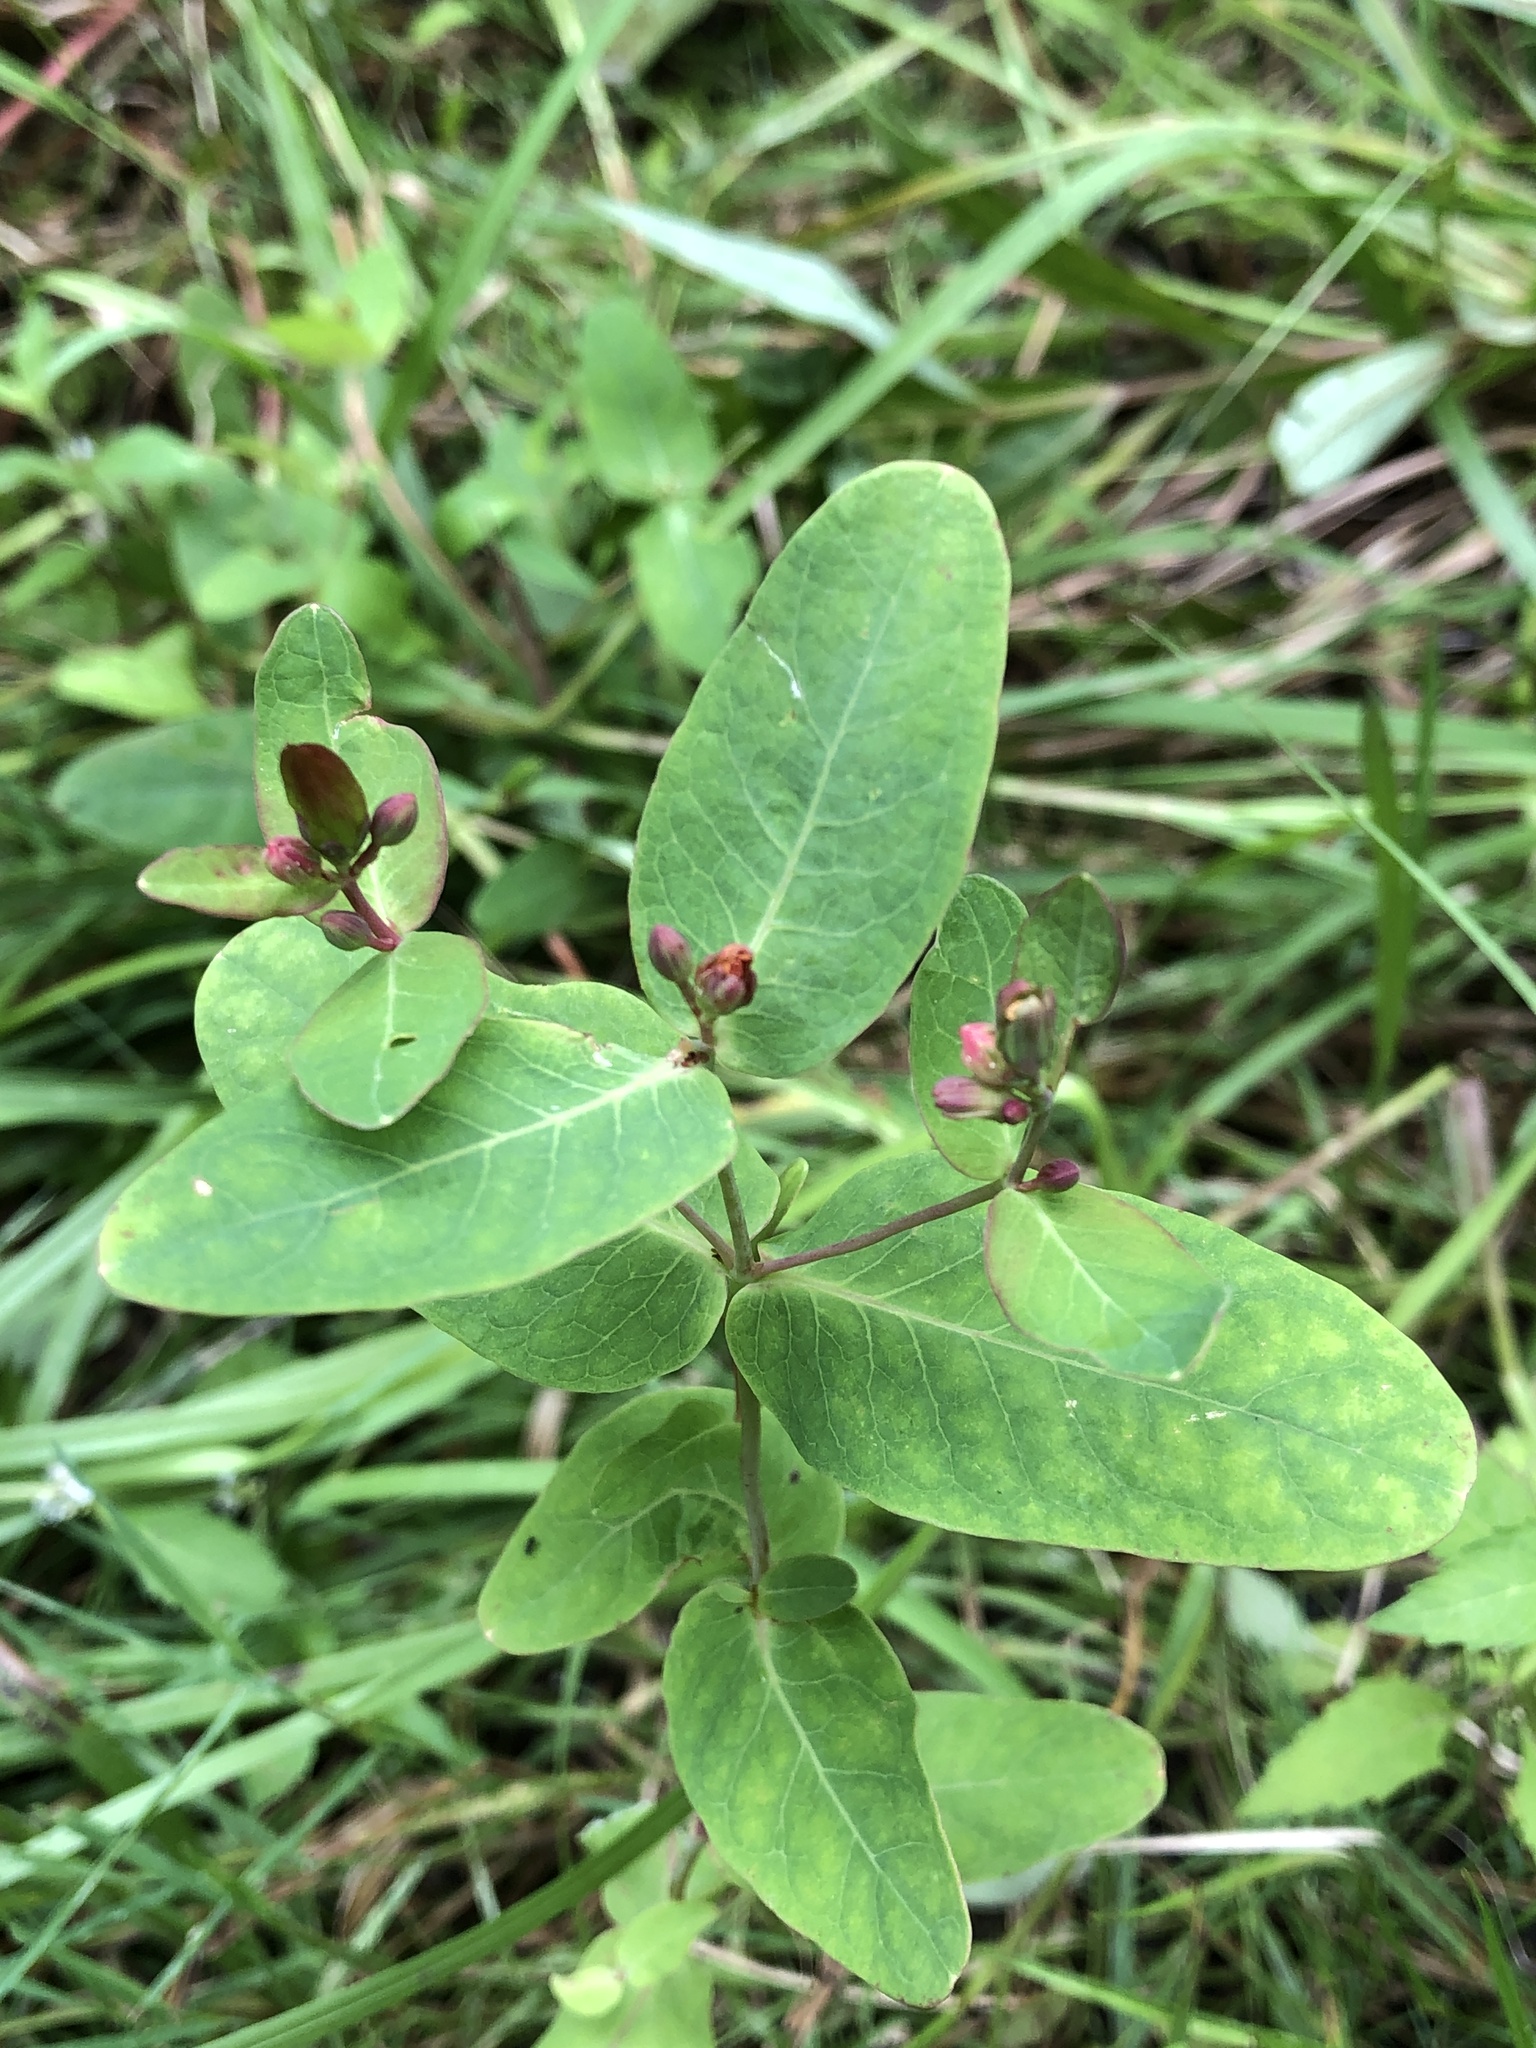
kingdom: Plantae
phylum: Tracheophyta
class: Magnoliopsida
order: Malpighiales
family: Hypericaceae
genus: Triadenum
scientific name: Triadenum fraseri
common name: Fraser's marsh st. johnswort
